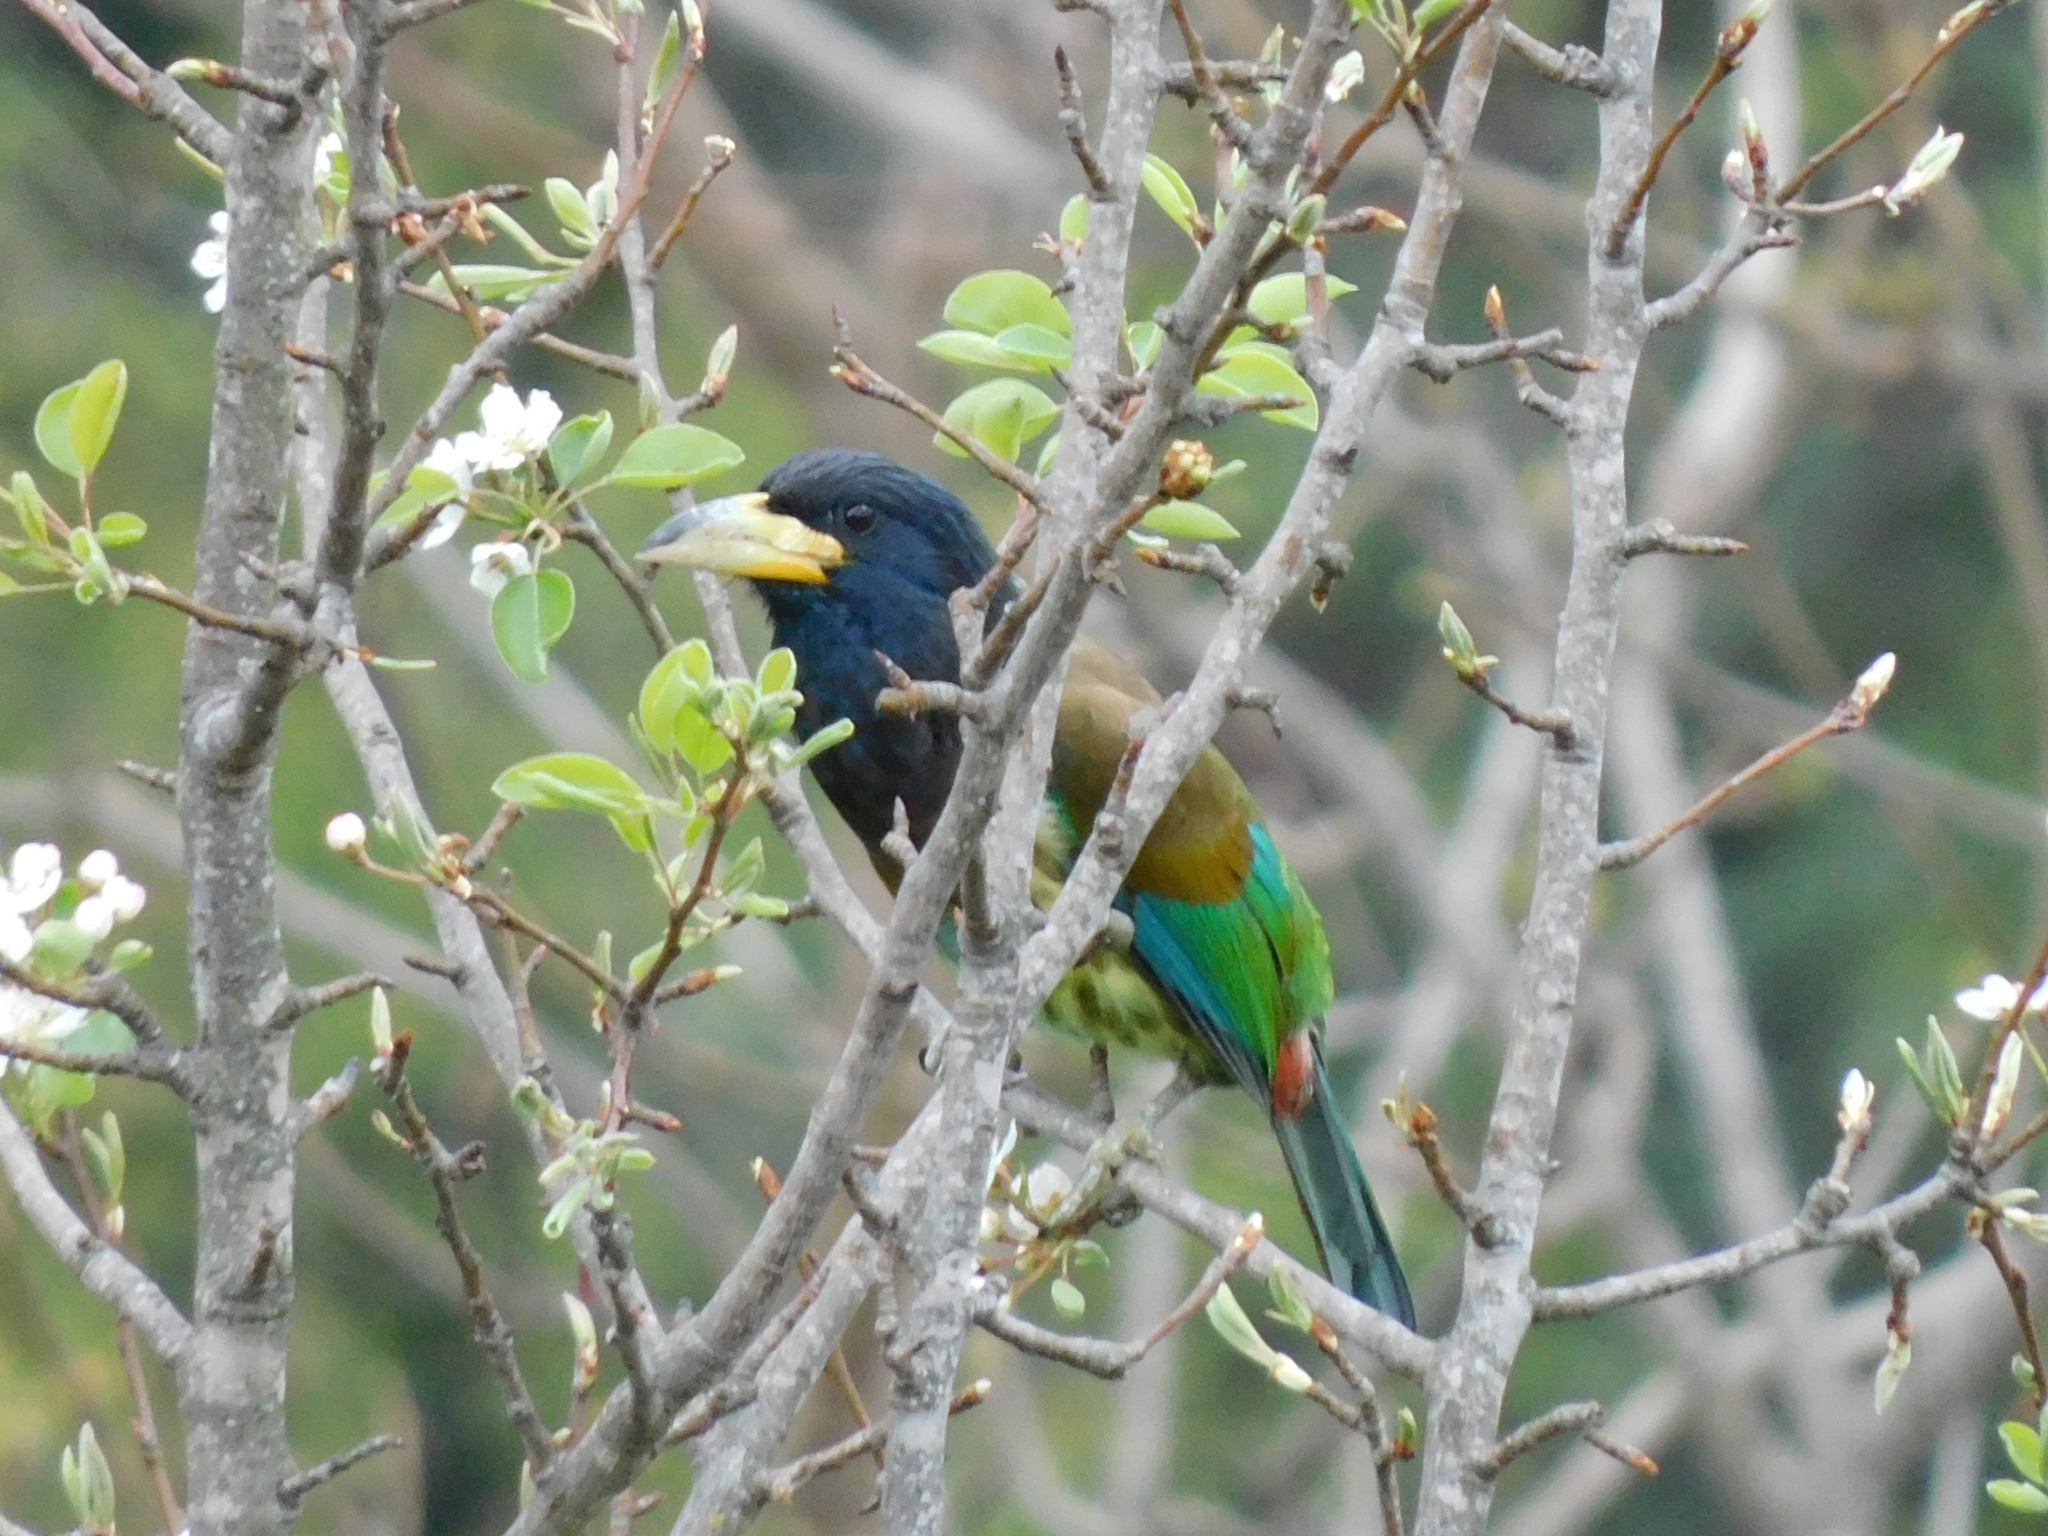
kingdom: Animalia
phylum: Chordata
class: Aves
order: Piciformes
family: Megalaimidae
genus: Psilopogon
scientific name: Psilopogon virens
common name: Great barbet
